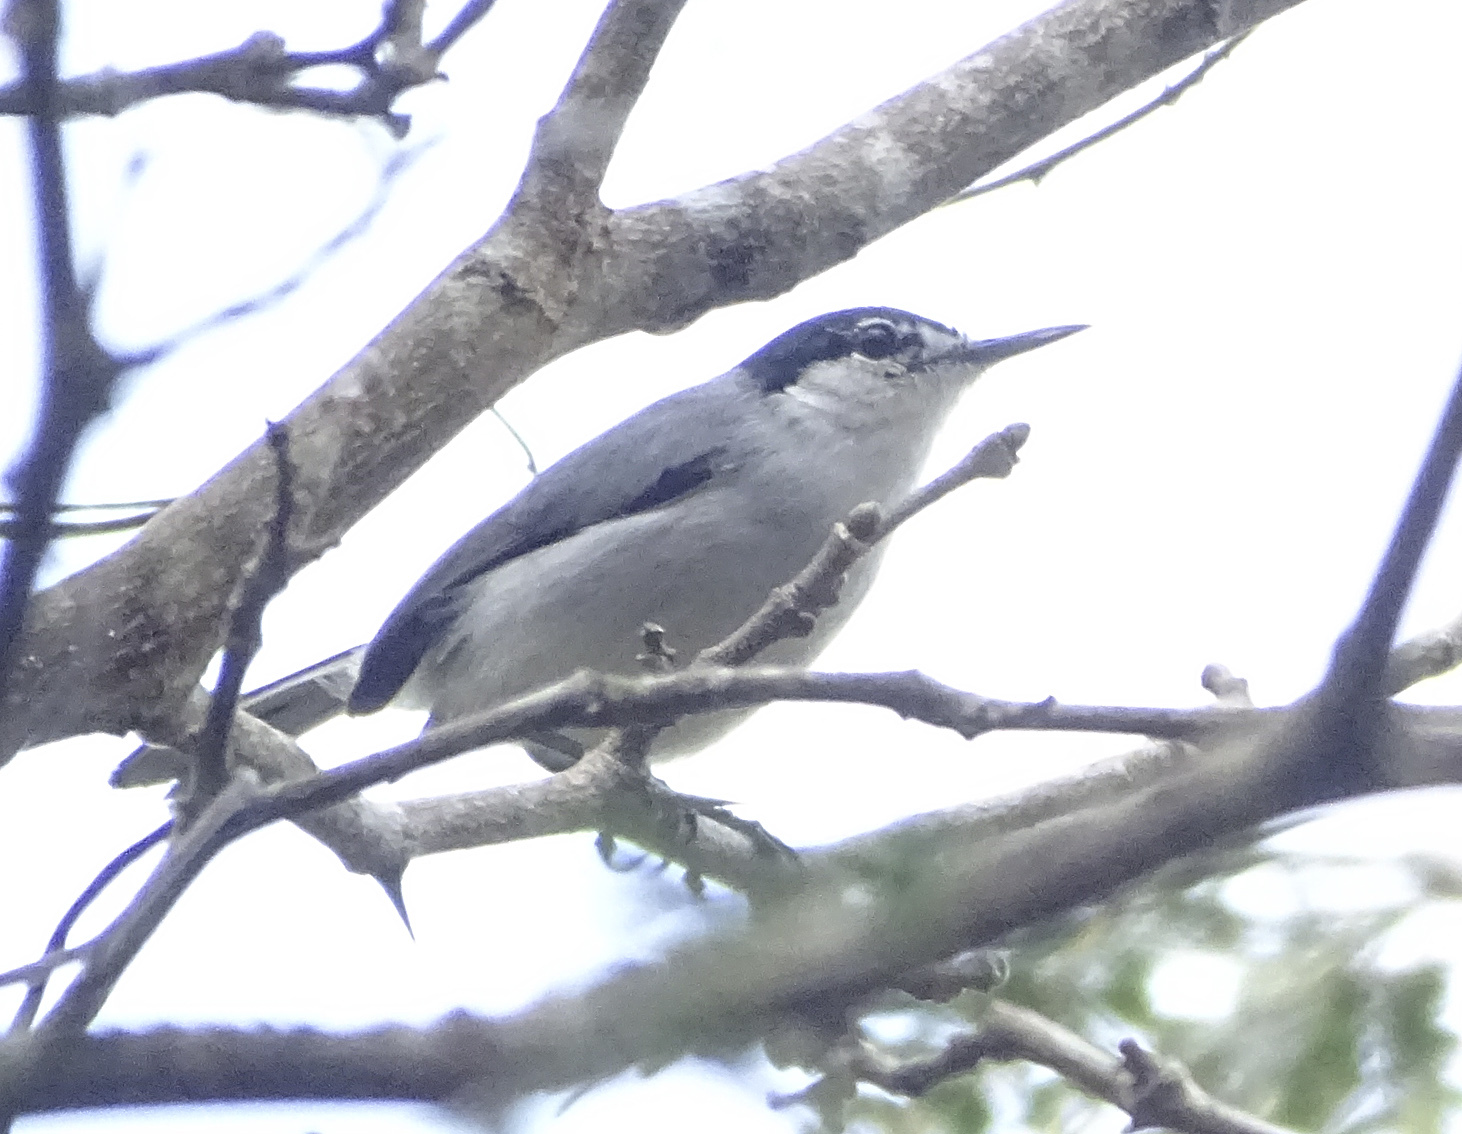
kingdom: Animalia
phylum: Chordata
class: Aves
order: Passeriformes
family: Polioptilidae
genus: Polioptila
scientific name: Polioptila albiloris
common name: White-lored gnatcatcher
